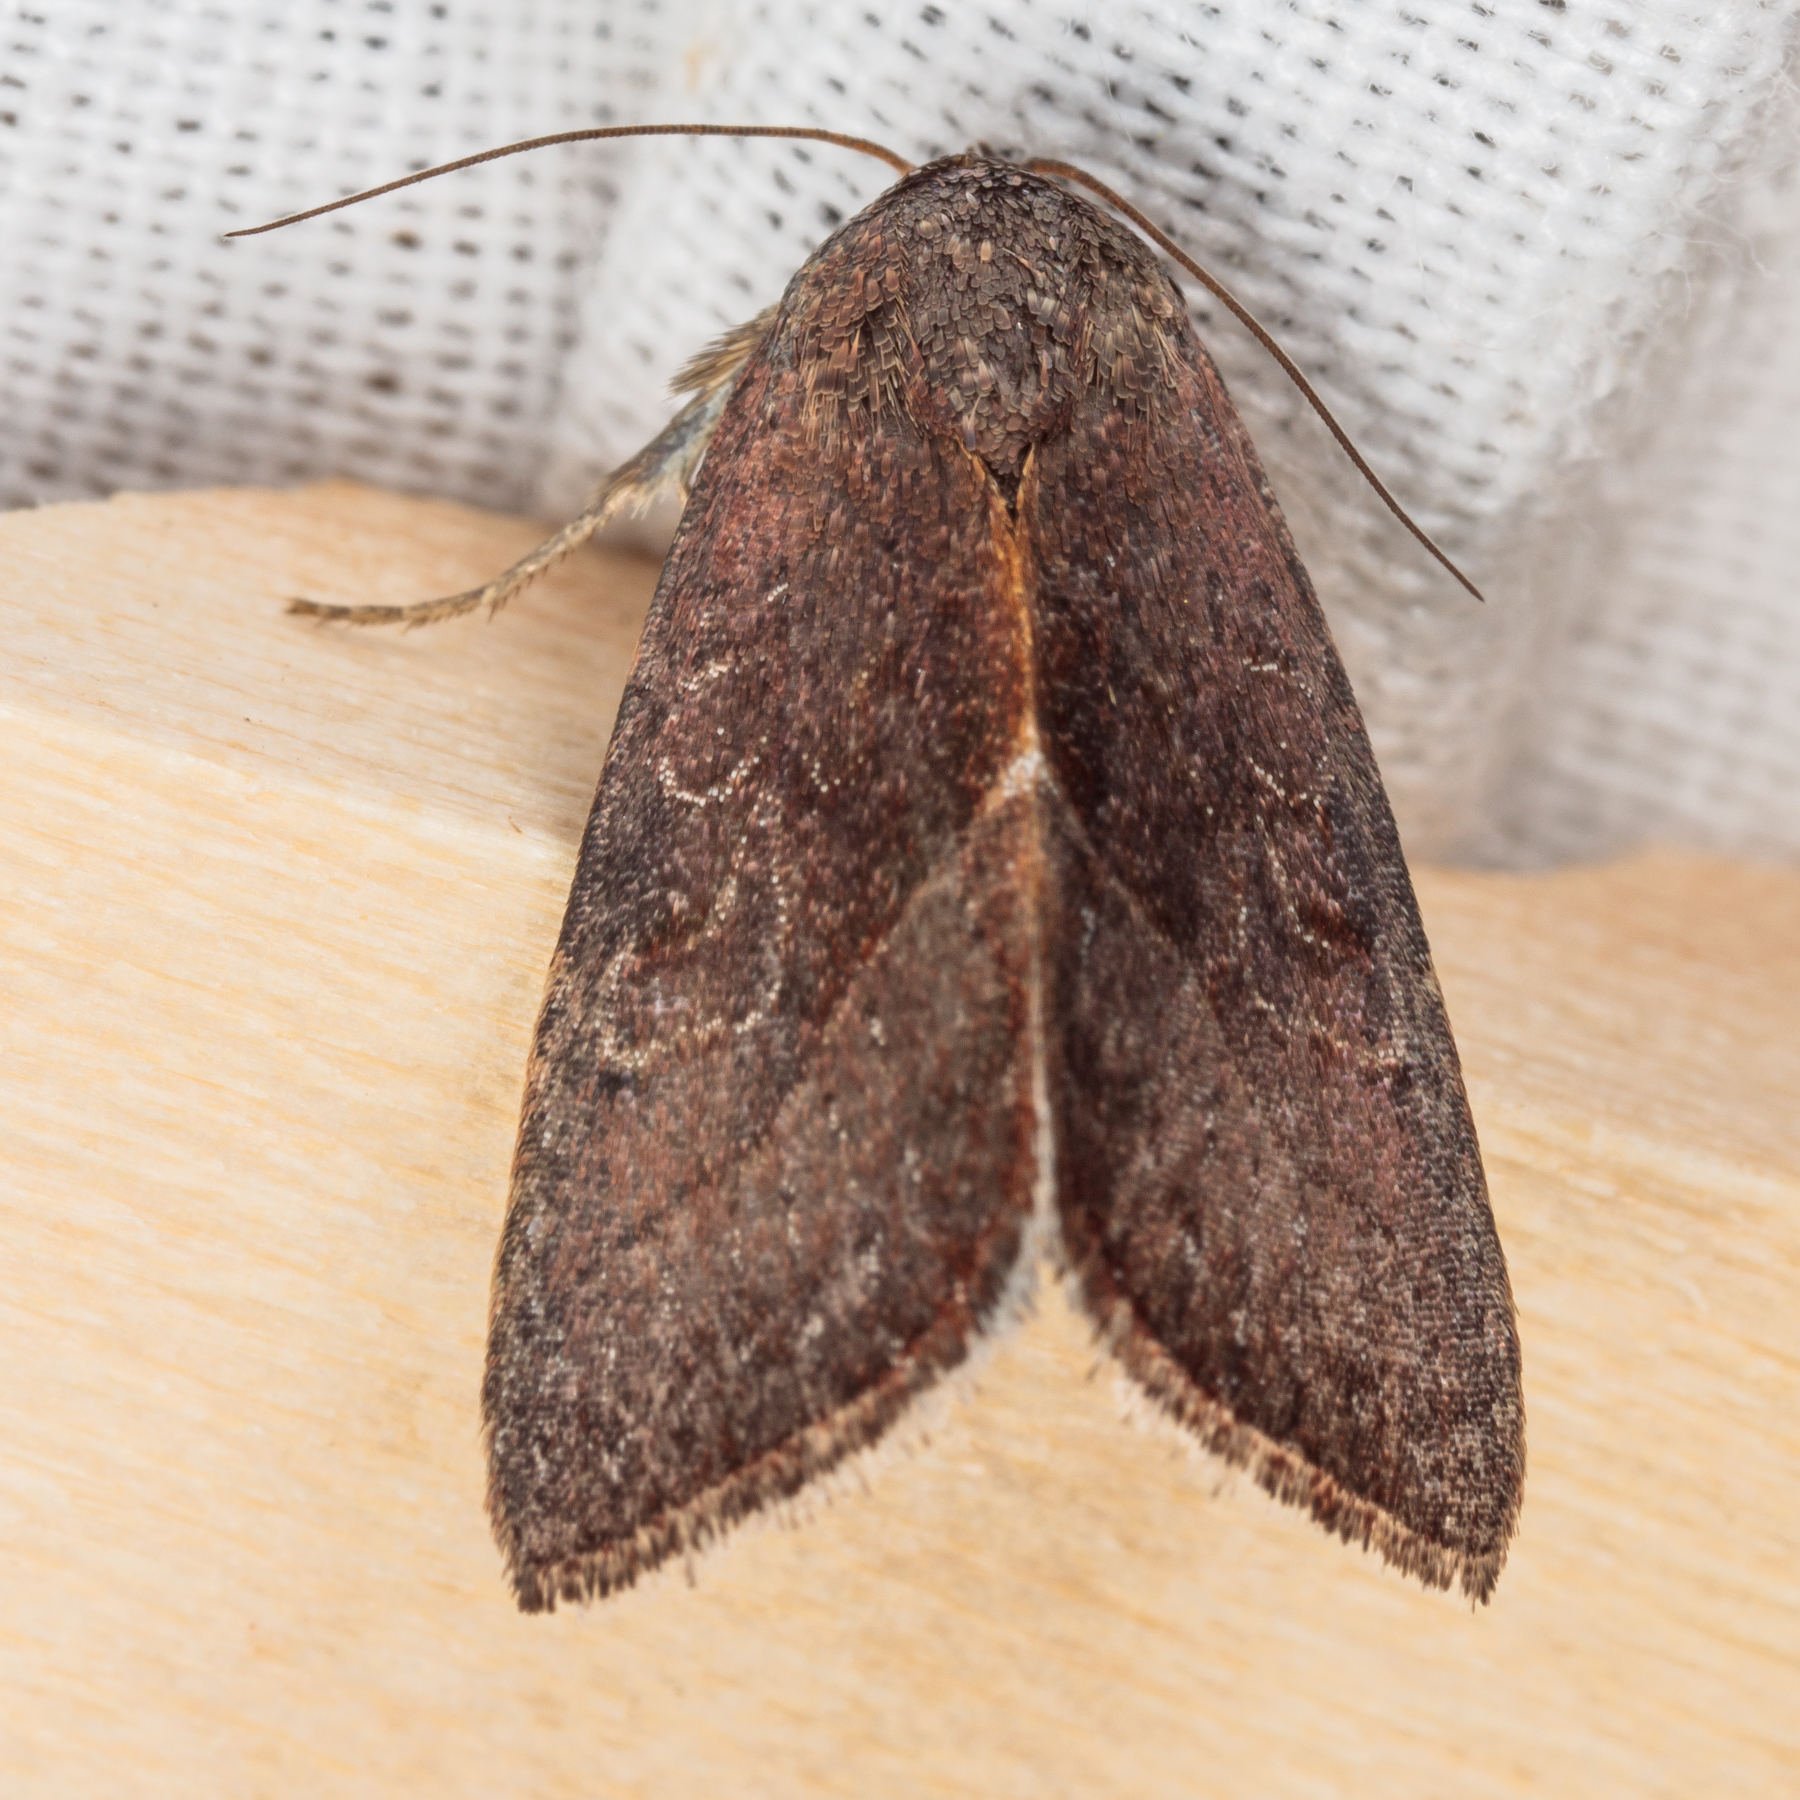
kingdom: Animalia
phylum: Arthropoda
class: Insecta
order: Lepidoptera
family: Noctuidae
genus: Galgula
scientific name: Galgula partita
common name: Wedgeling
